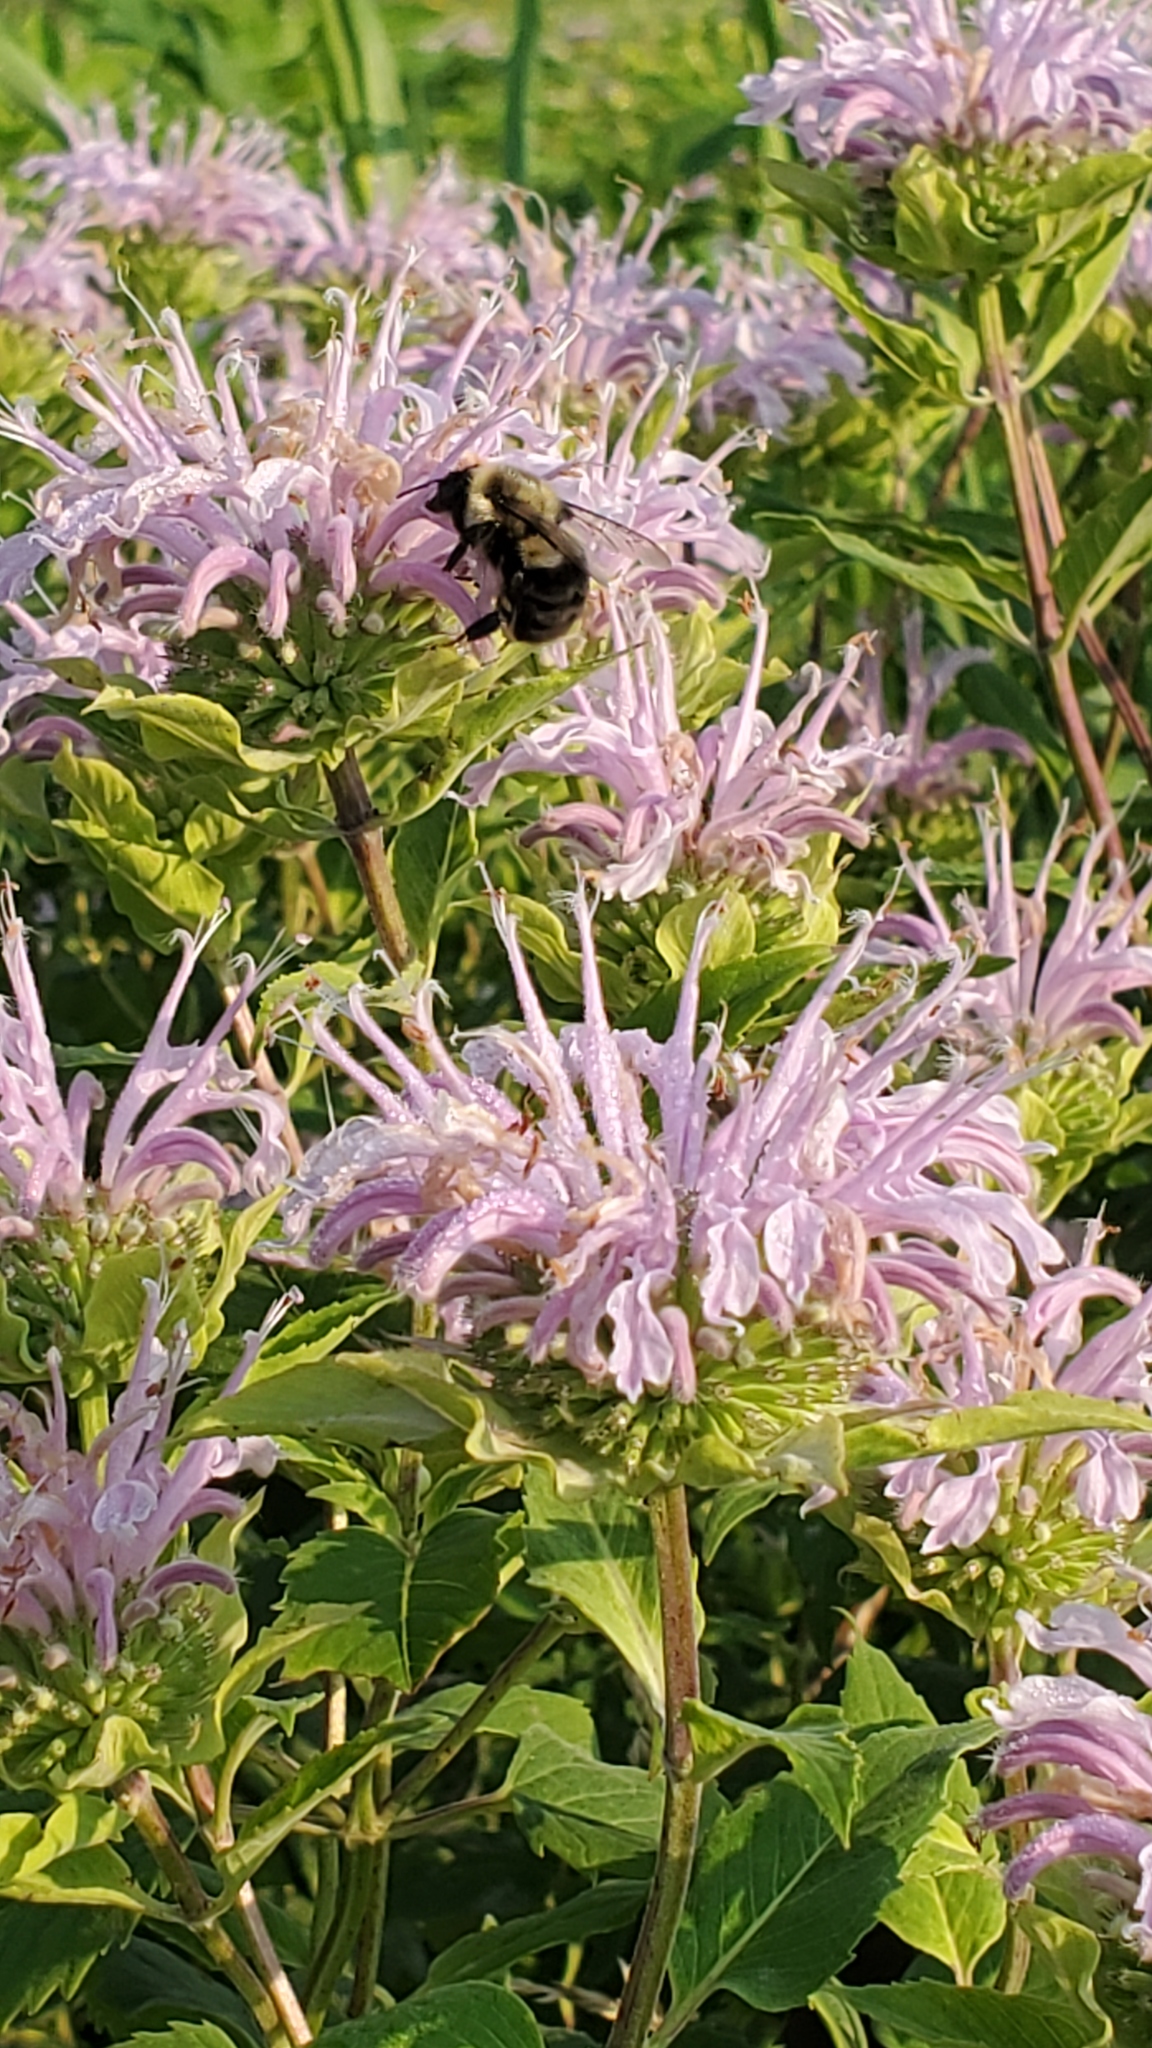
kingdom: Animalia
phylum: Arthropoda
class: Insecta
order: Hymenoptera
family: Apidae
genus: Bombus
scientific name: Bombus impatiens
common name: Common eastern bumble bee
